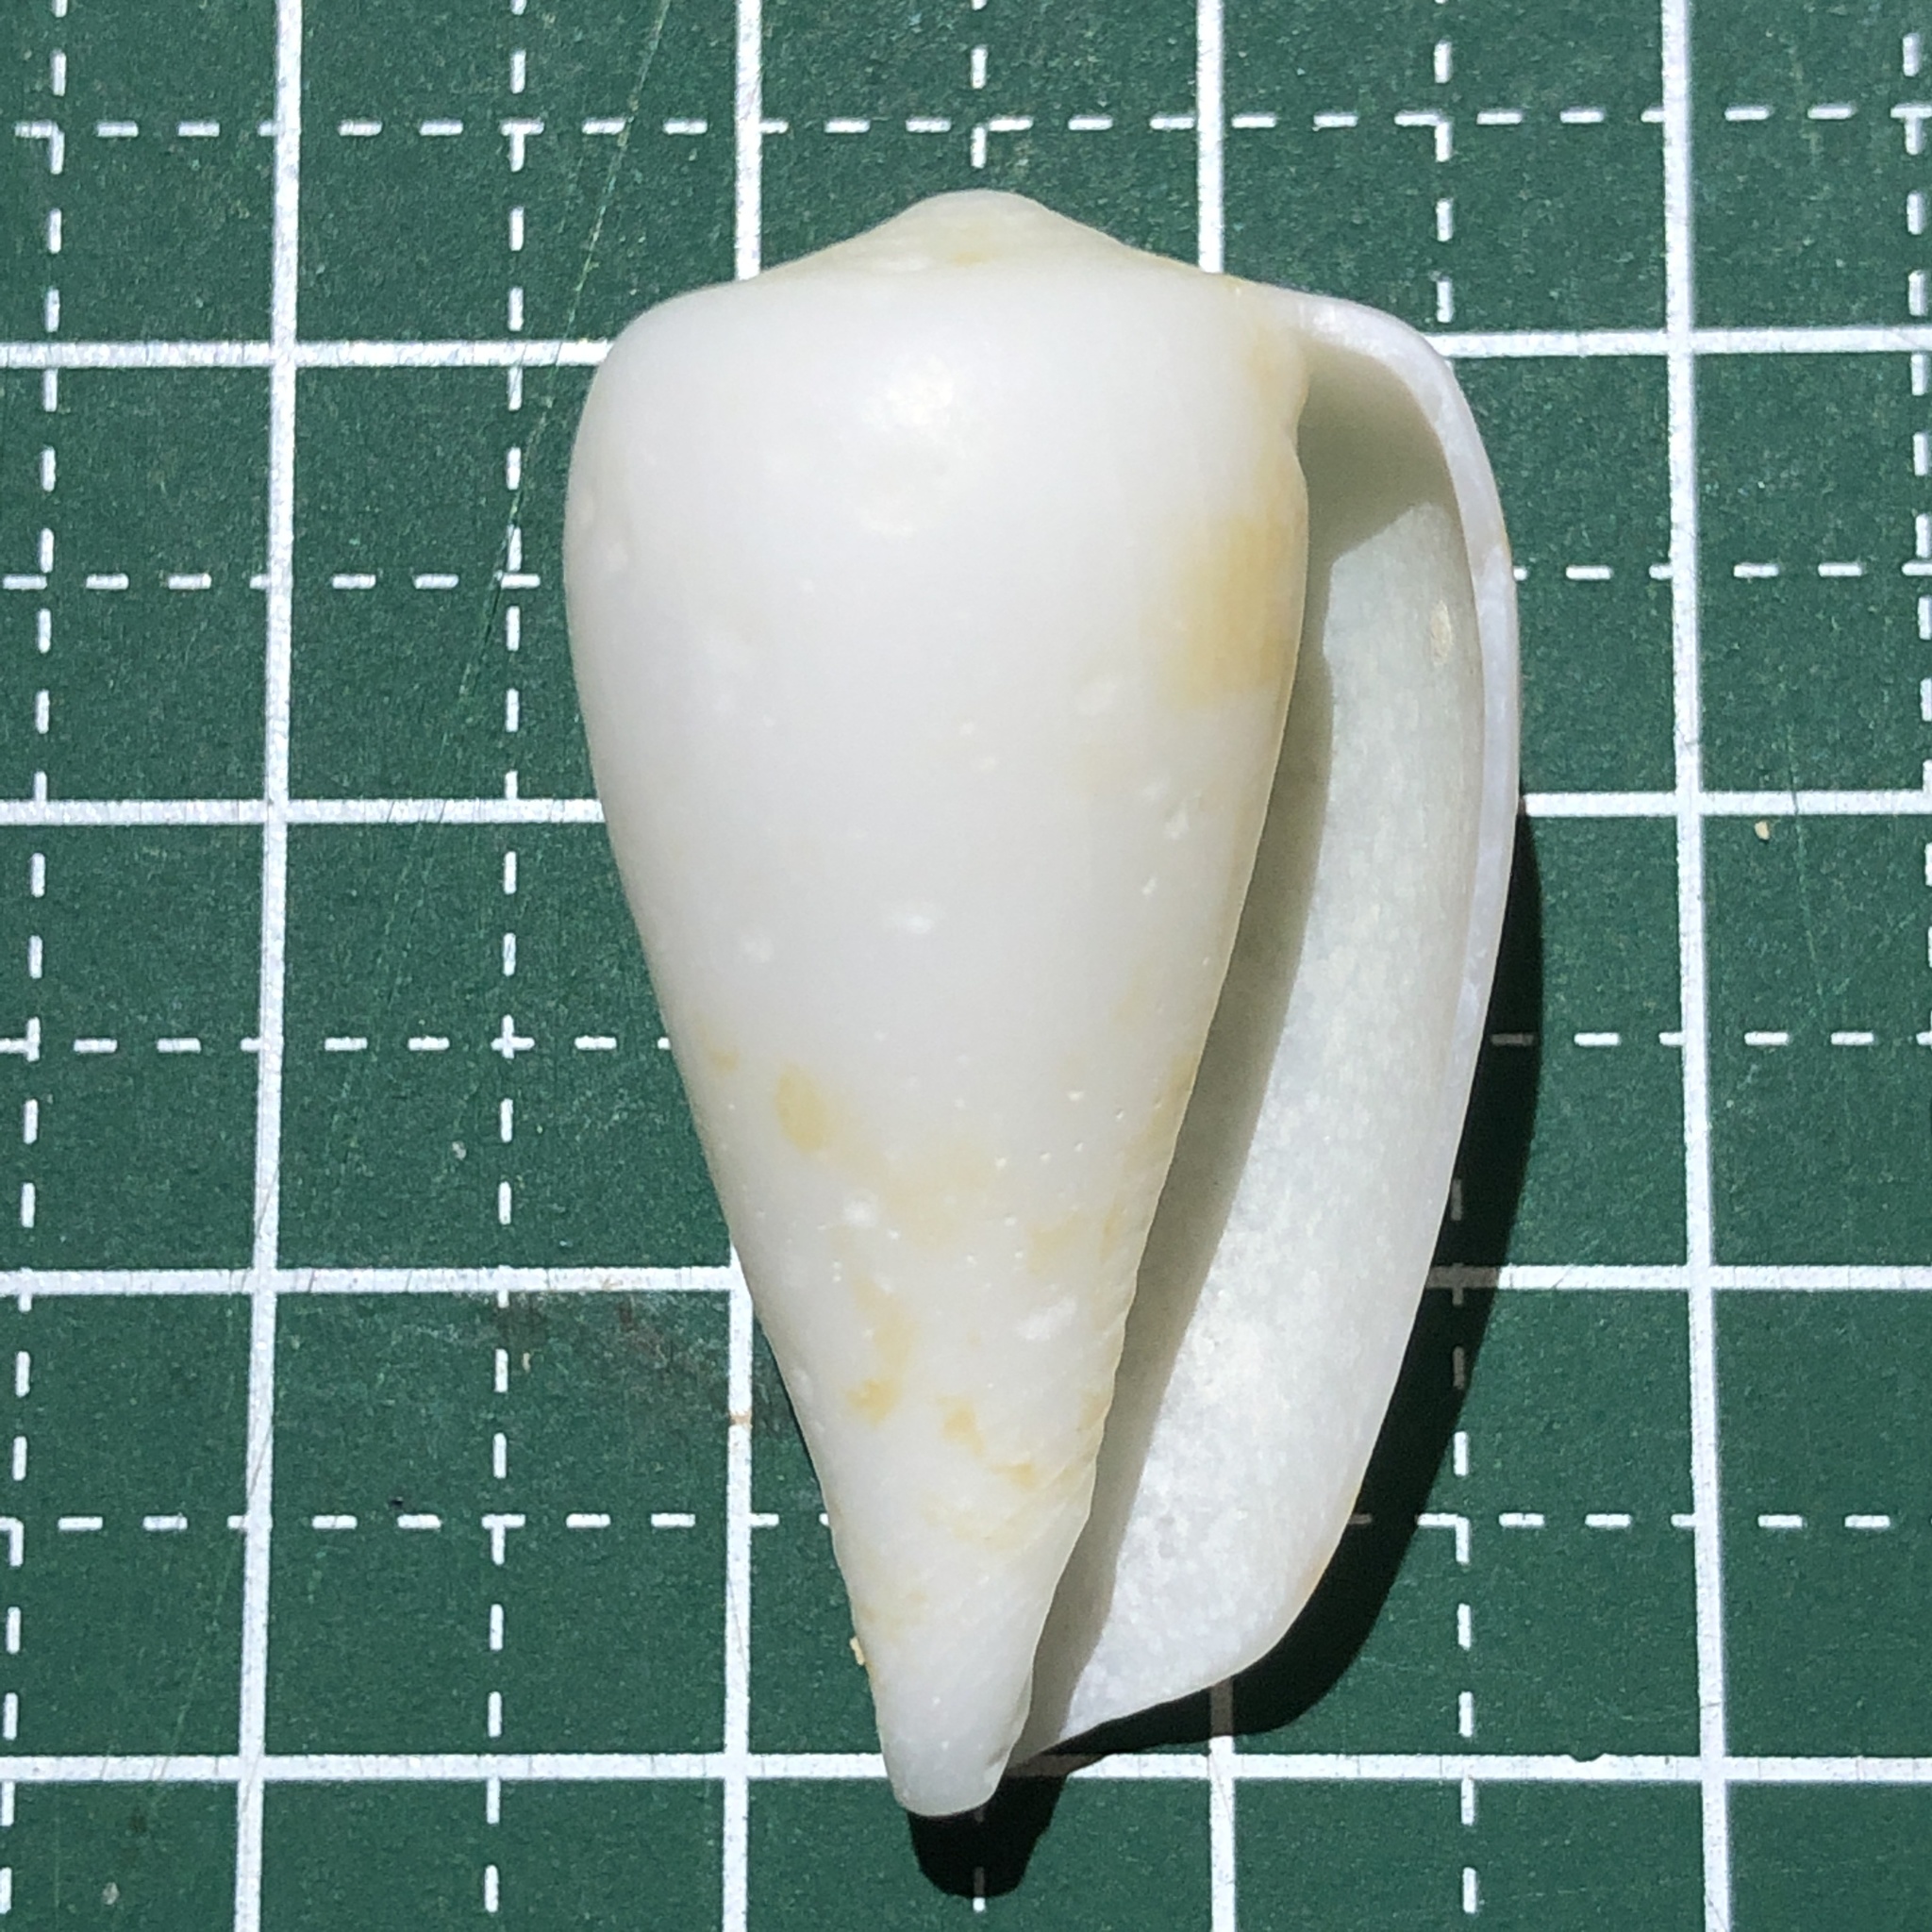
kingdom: Animalia
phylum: Mollusca
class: Gastropoda
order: Neogastropoda
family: Conidae
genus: Conus
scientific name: Conus spectrum
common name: Spectral cone
